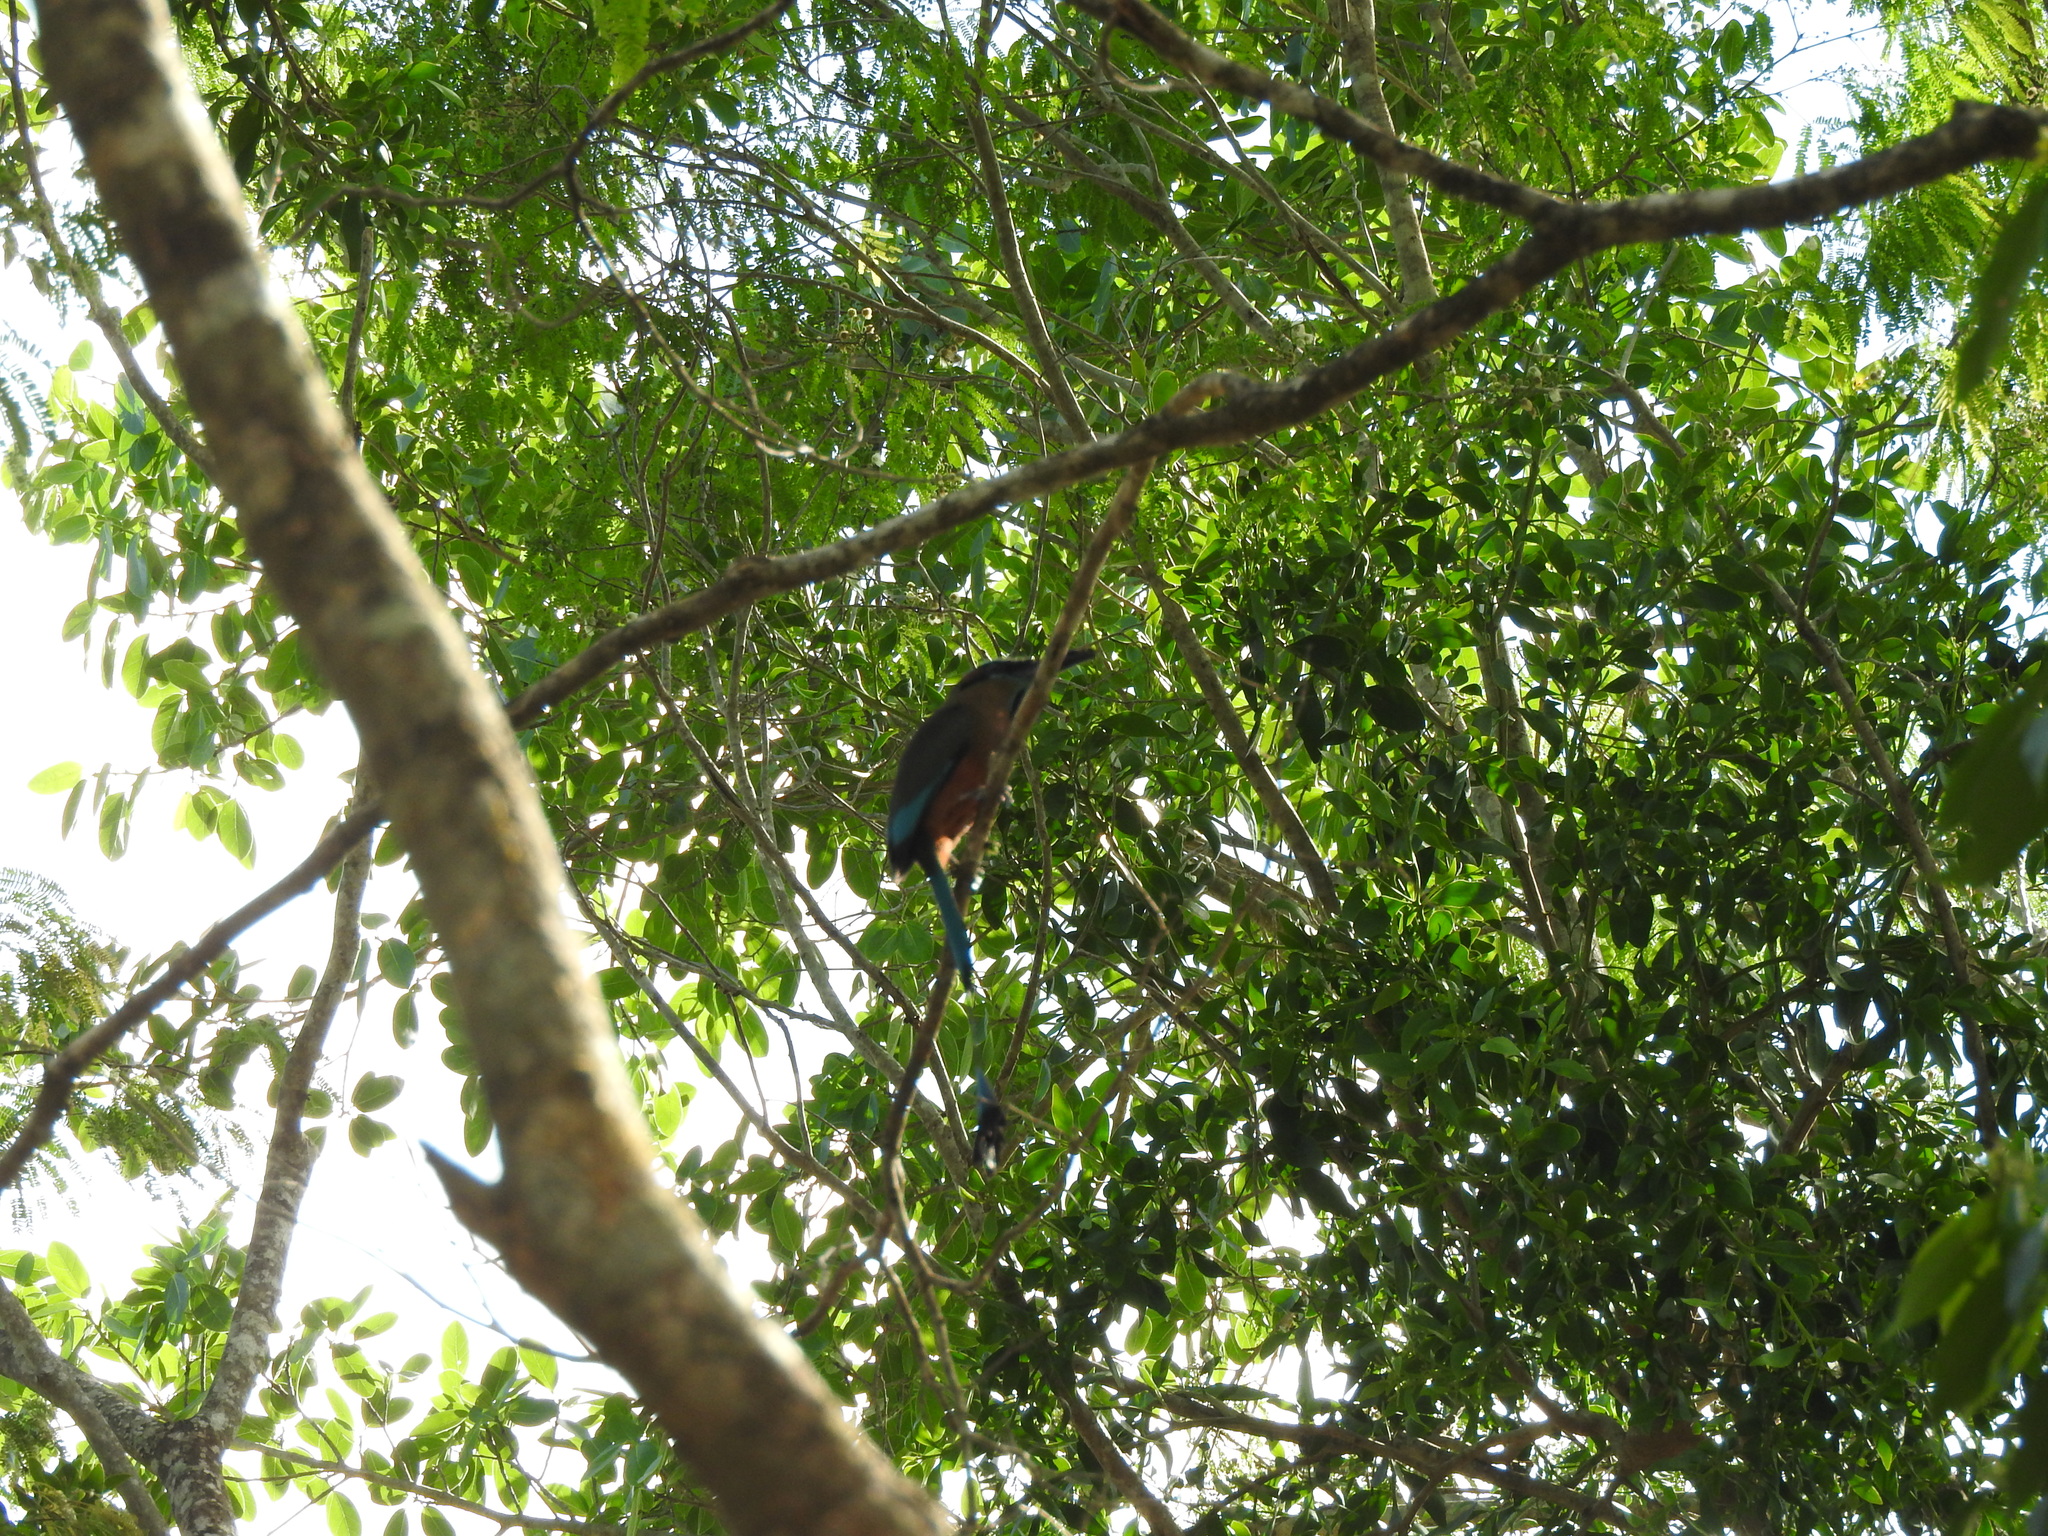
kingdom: Animalia
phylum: Chordata
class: Aves
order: Coraciiformes
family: Momotidae
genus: Eumomota
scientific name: Eumomota superciliosa
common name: Turquoise-browed motmot
